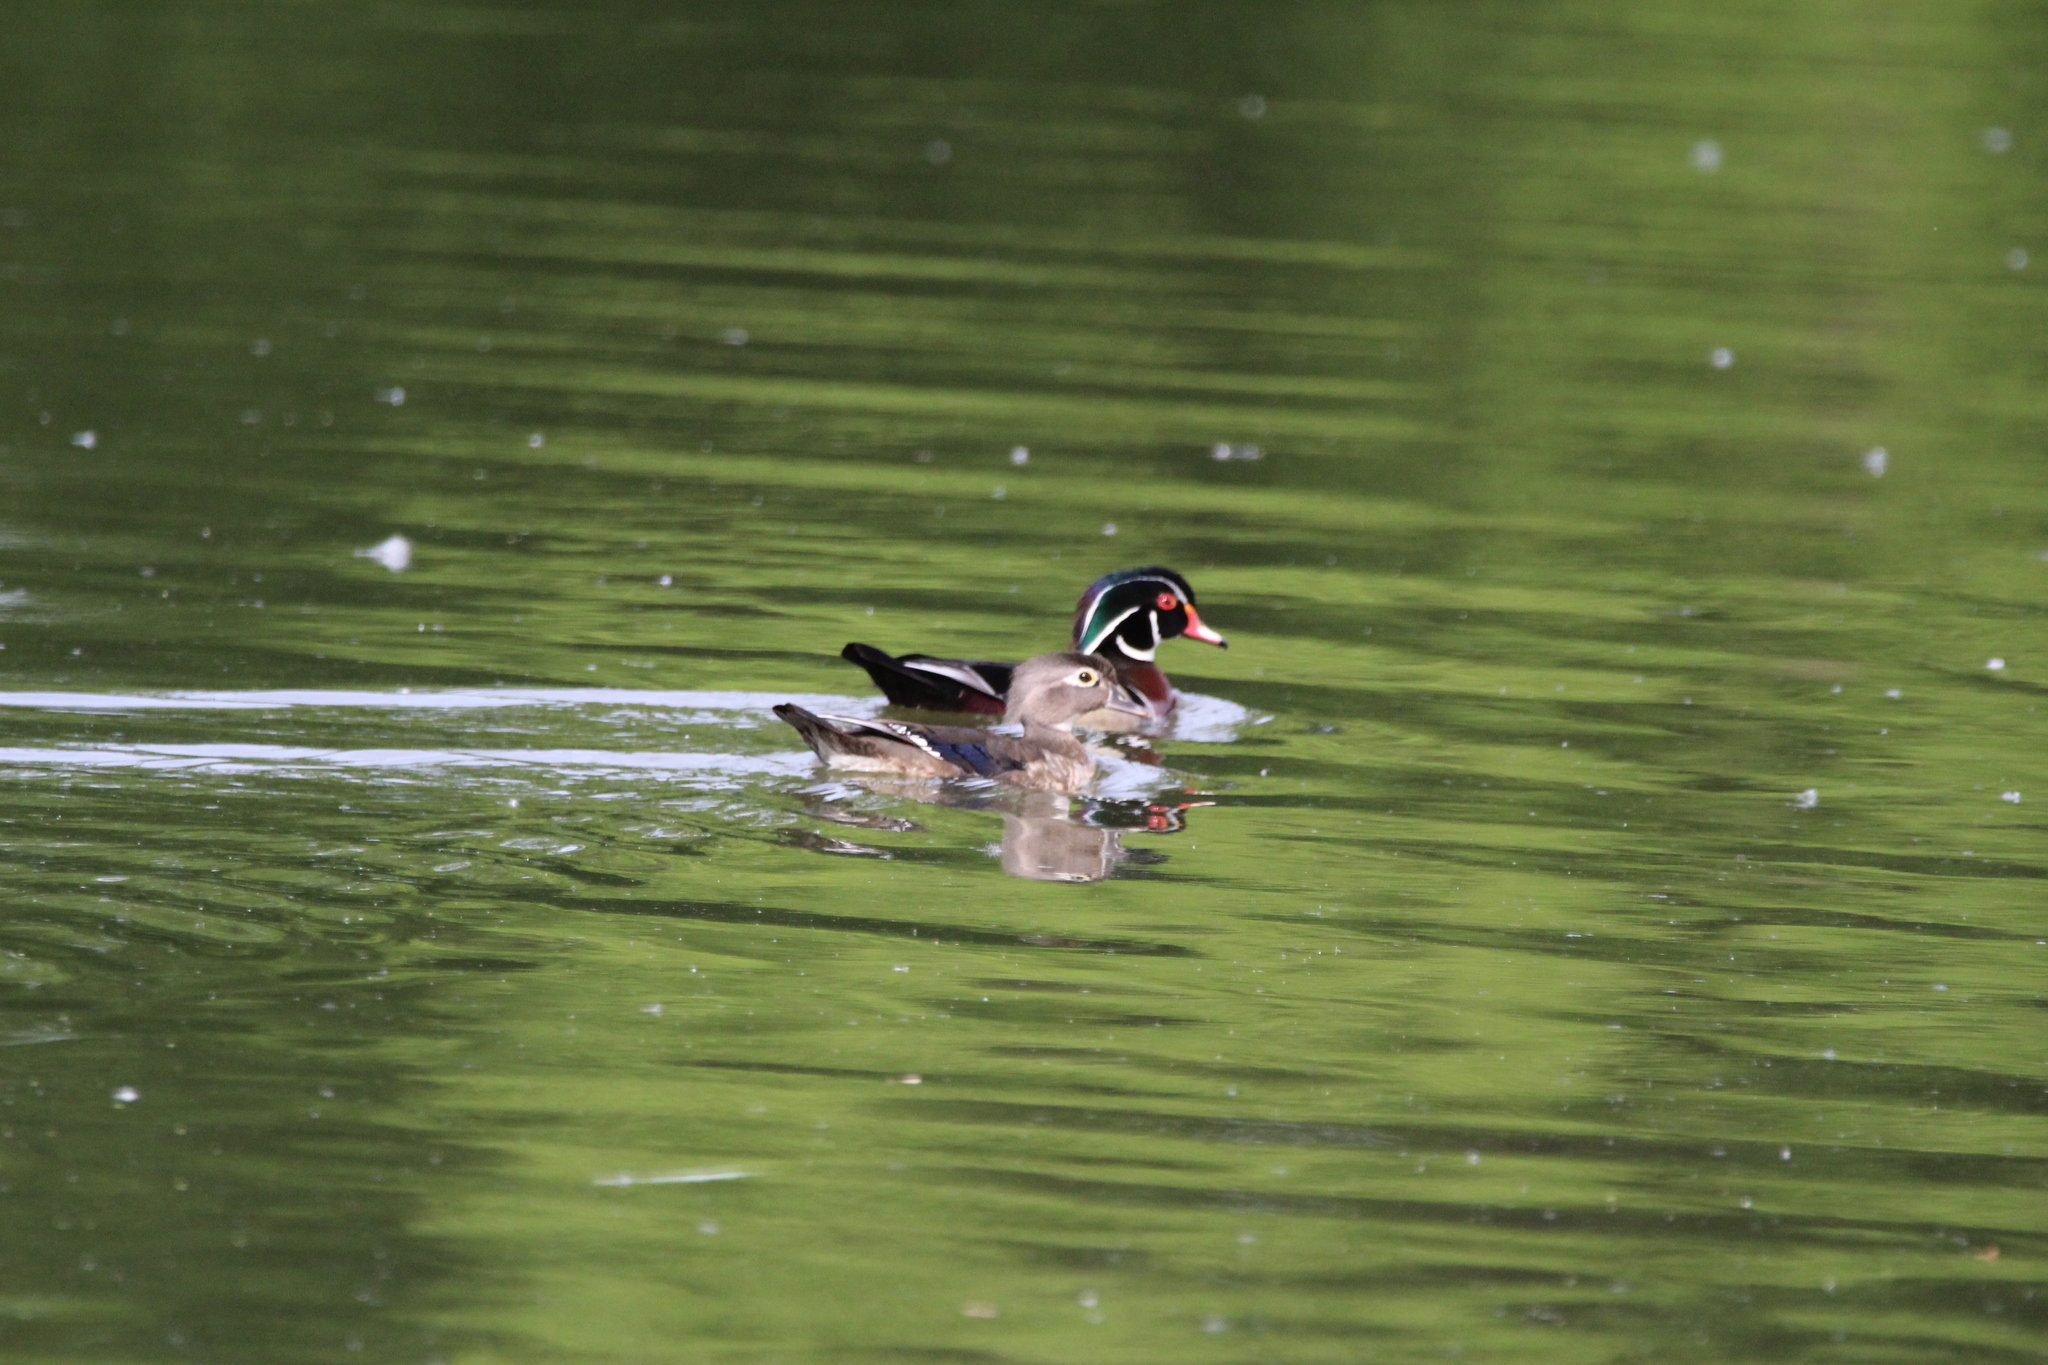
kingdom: Animalia
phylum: Chordata
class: Aves
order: Anseriformes
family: Anatidae
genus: Aix
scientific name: Aix sponsa
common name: Wood duck
